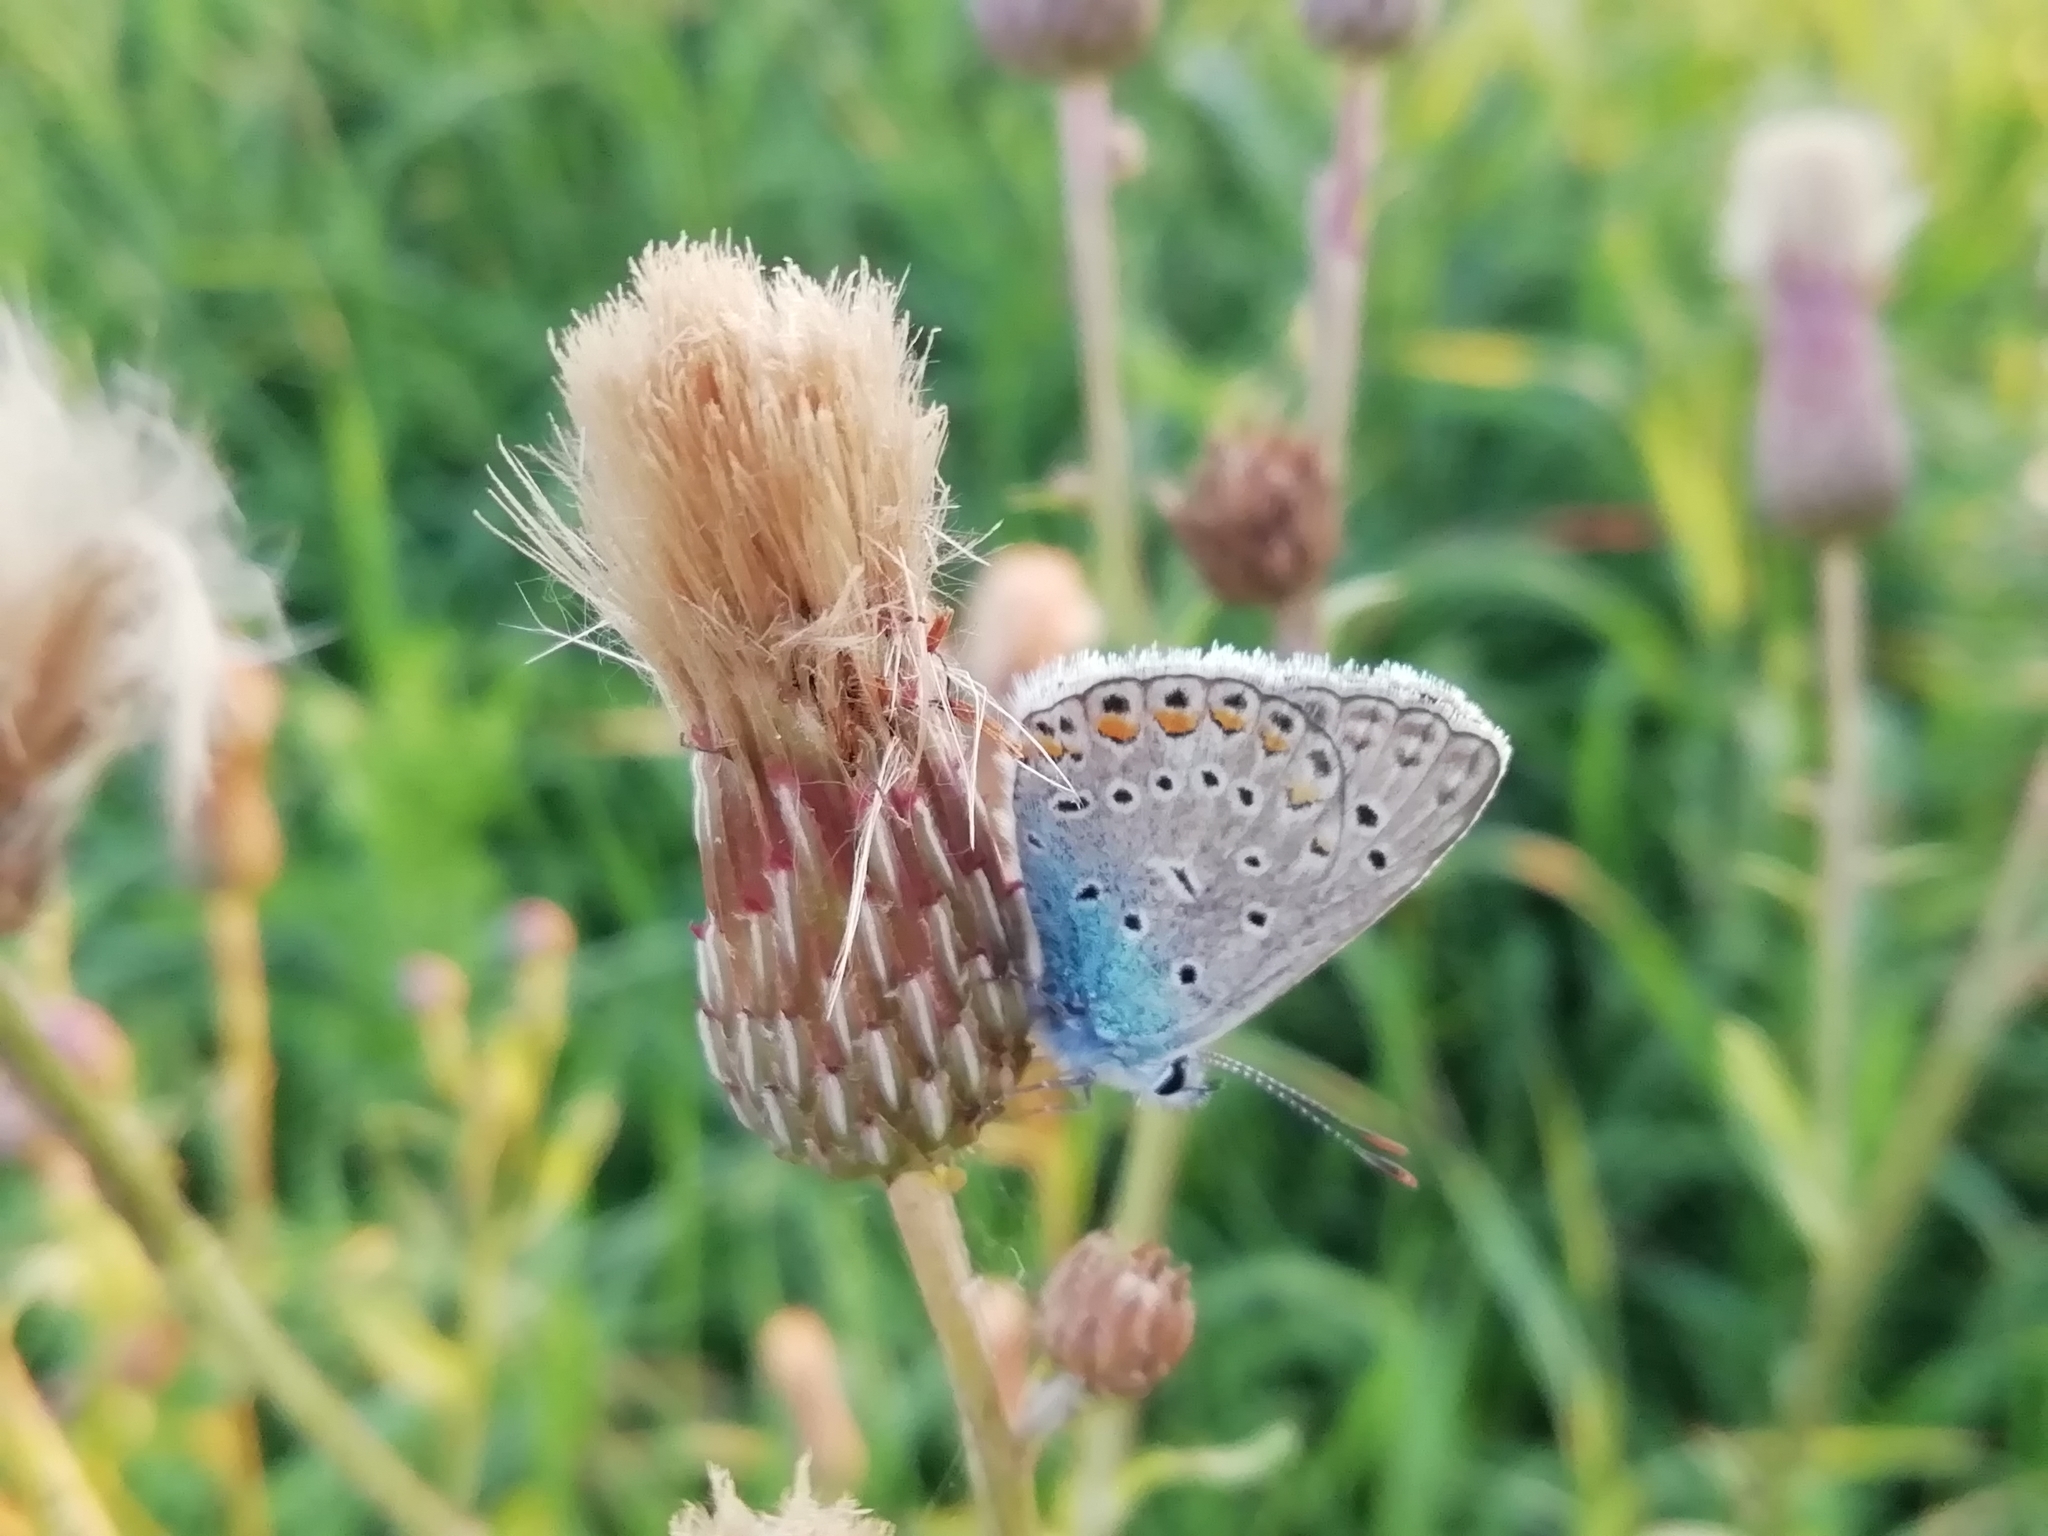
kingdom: Animalia
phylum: Arthropoda
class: Insecta
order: Lepidoptera
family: Lycaenidae
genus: Polyommatus
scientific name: Polyommatus icarus
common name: Common blue
